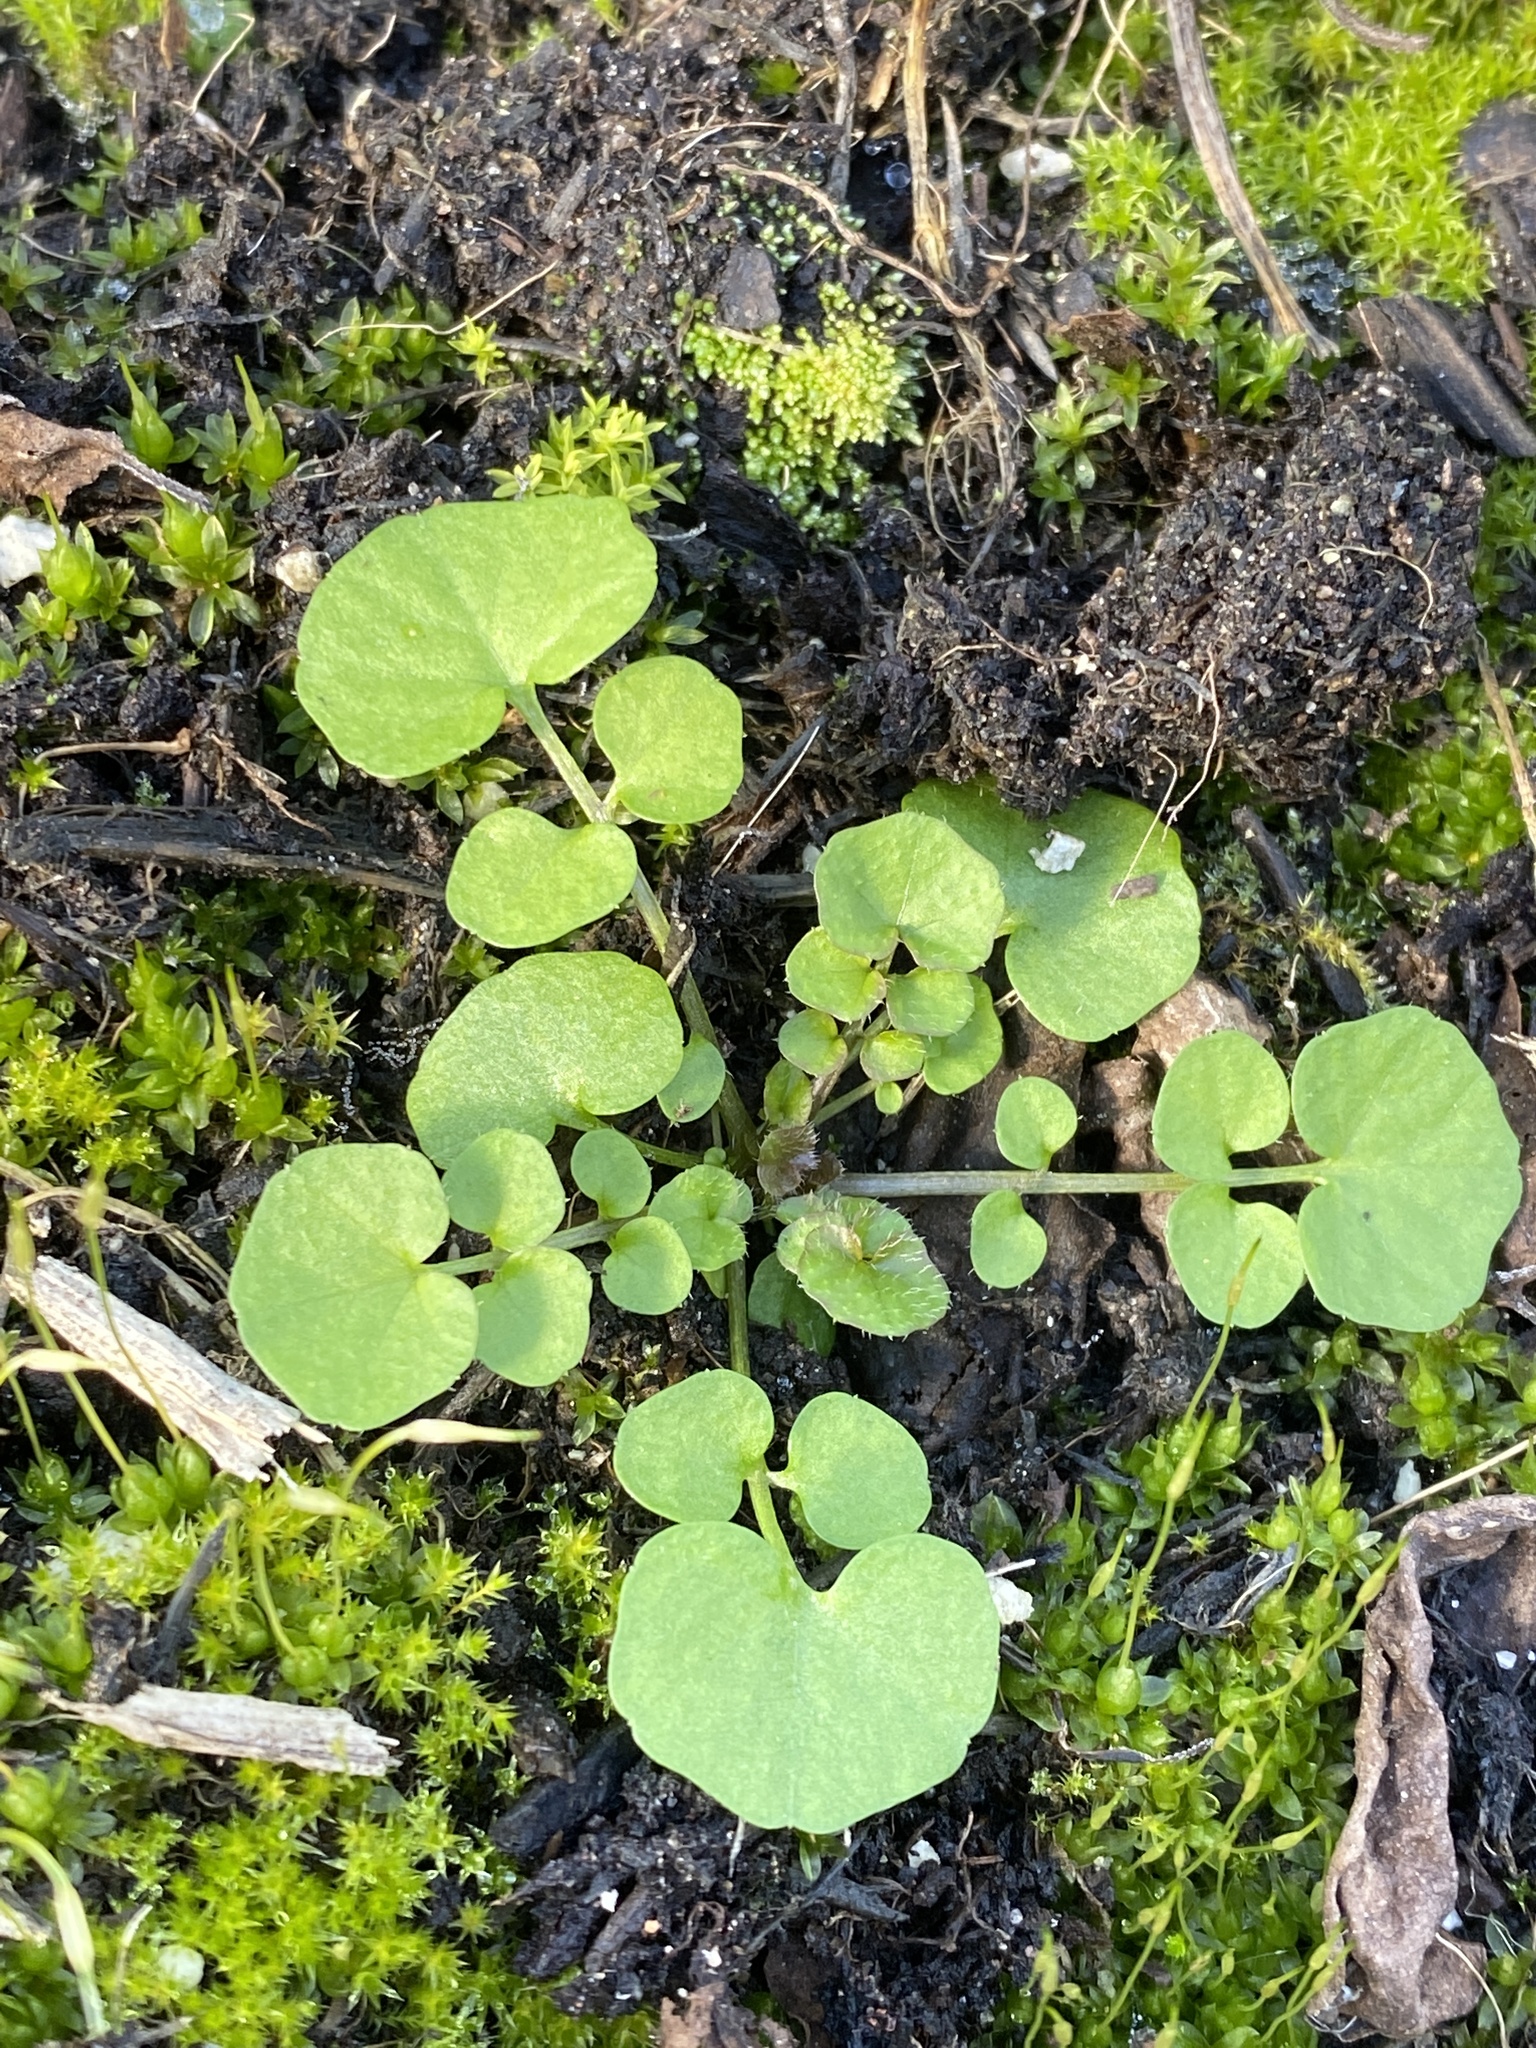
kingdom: Plantae
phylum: Tracheophyta
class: Magnoliopsida
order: Brassicales
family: Brassicaceae
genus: Cardamine
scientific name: Cardamine hirsuta
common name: Hairy bittercress
